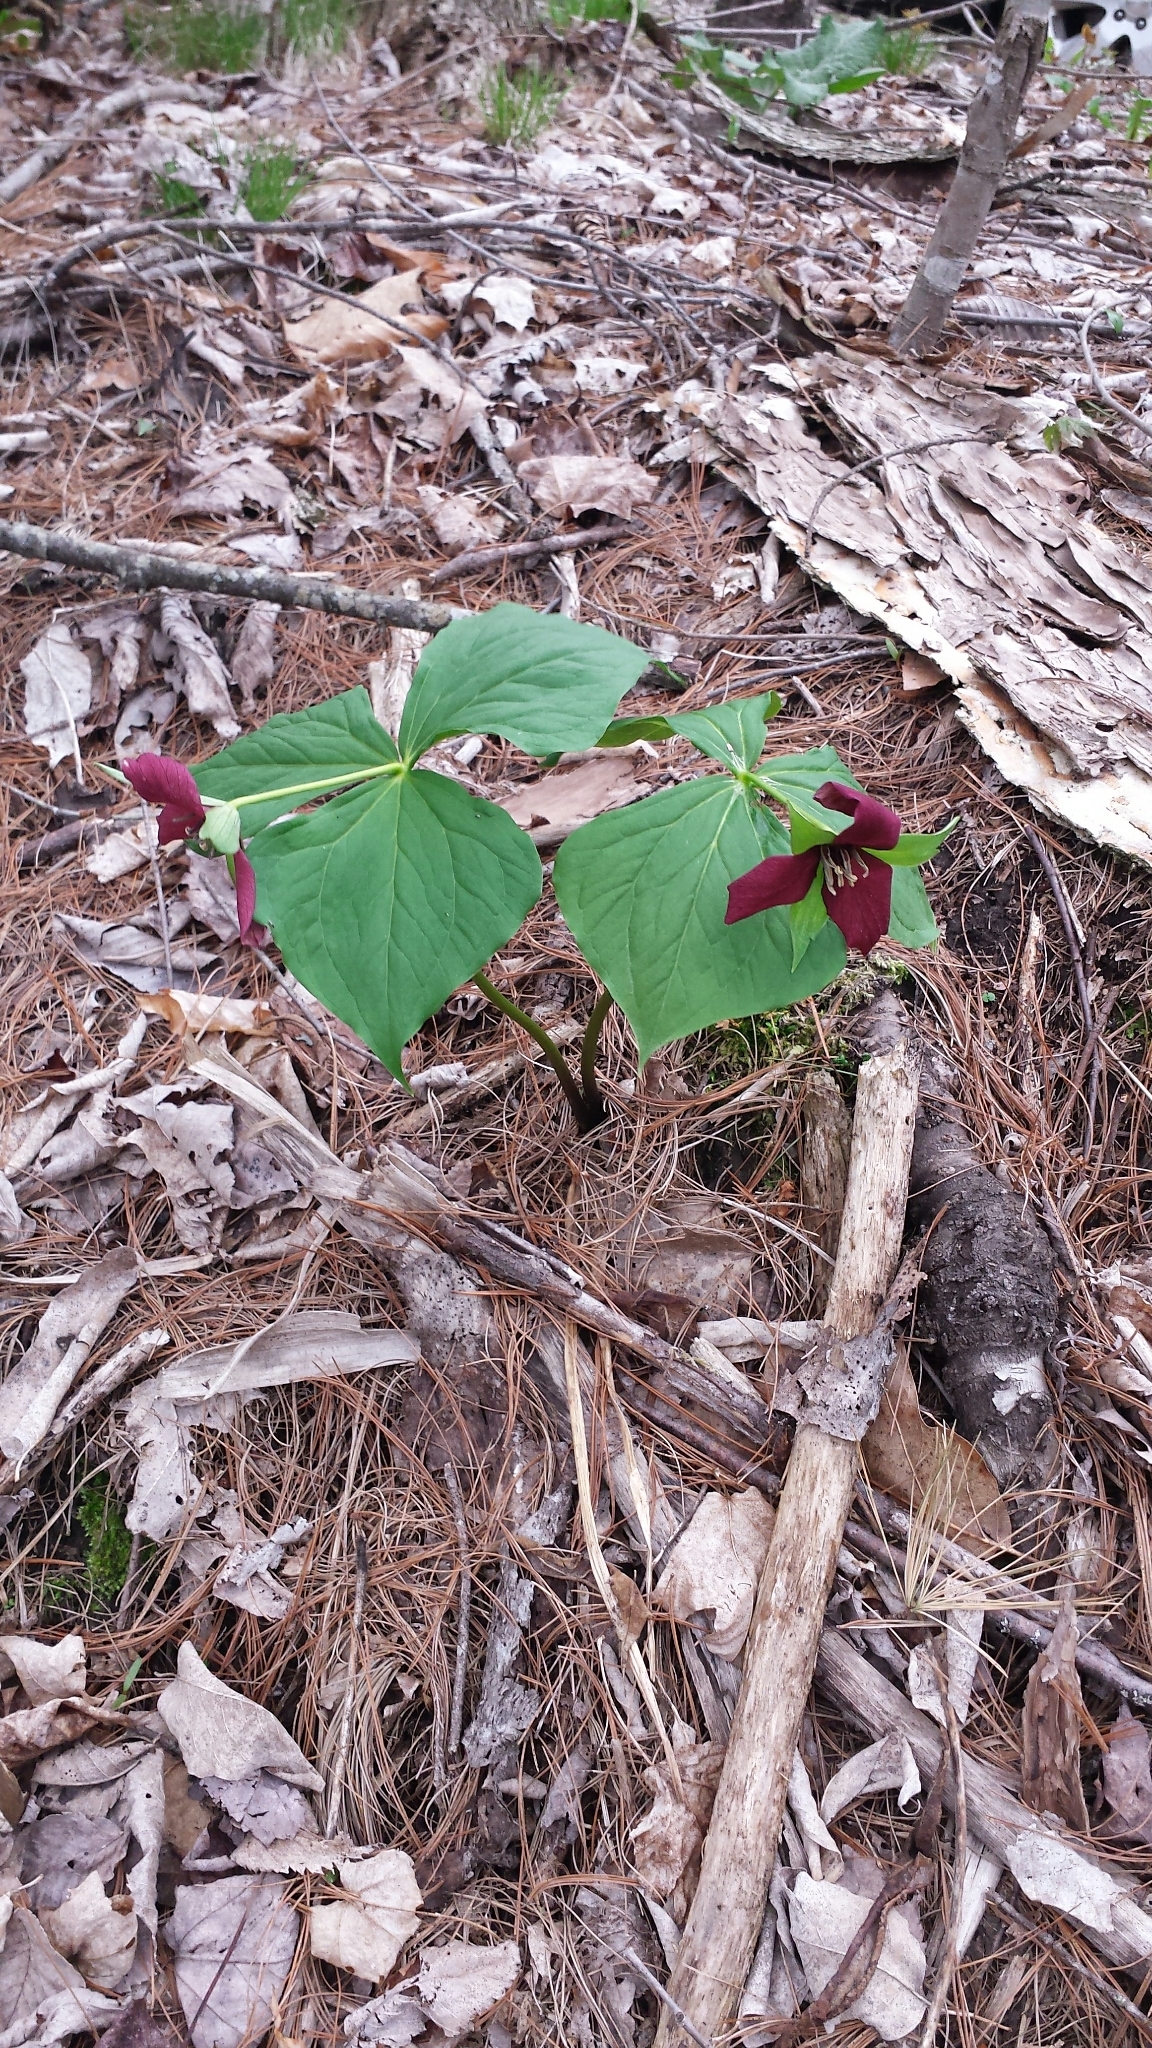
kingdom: Plantae
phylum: Tracheophyta
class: Liliopsida
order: Liliales
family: Melanthiaceae
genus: Trillium
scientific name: Trillium erectum
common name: Purple trillium
